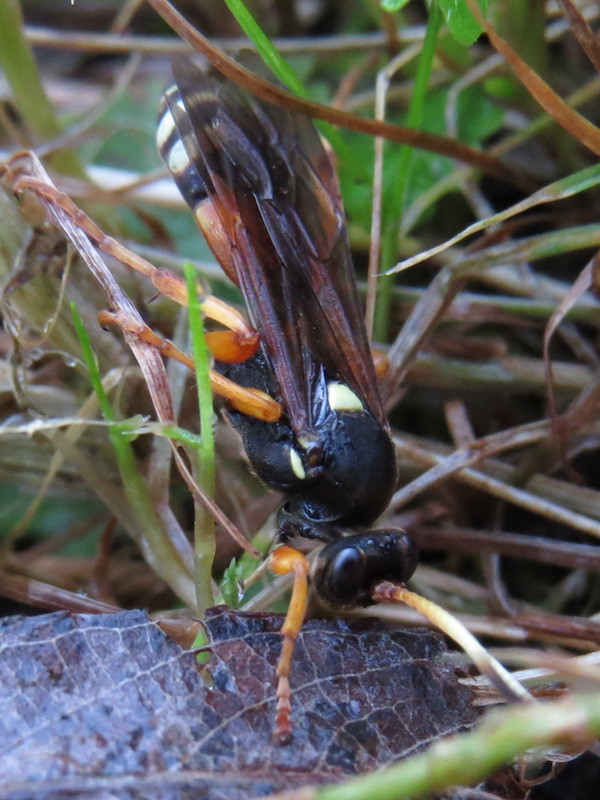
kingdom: Animalia
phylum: Arthropoda
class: Insecta
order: Hymenoptera
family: Ichneumonidae
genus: Ichneumon
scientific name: Ichneumon ambulatorius
